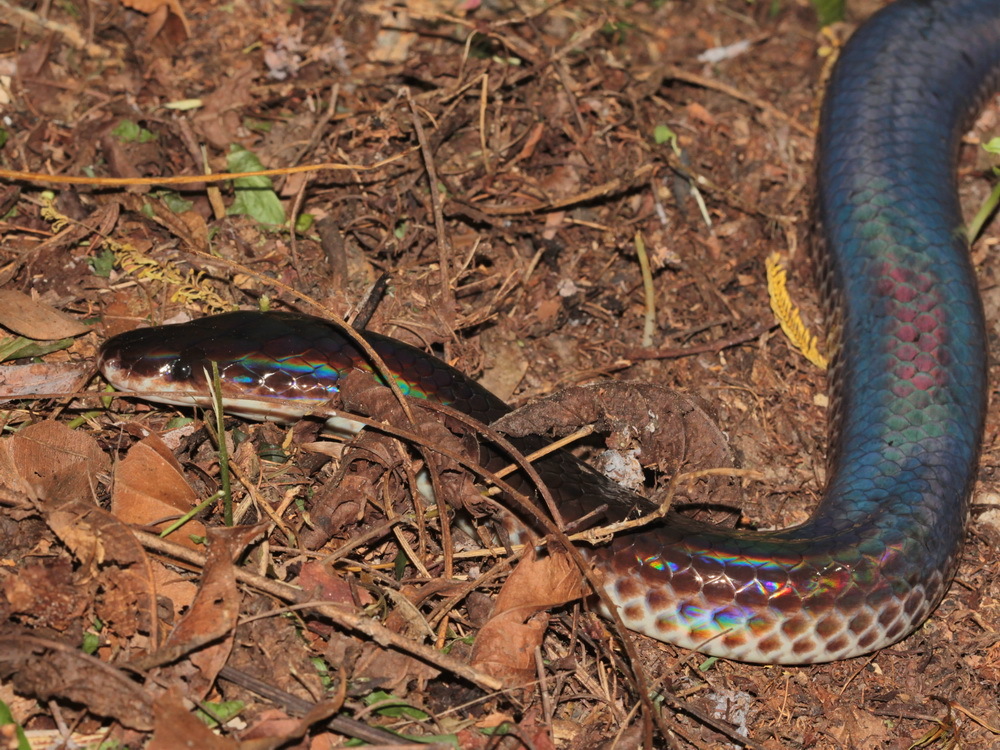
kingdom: Animalia
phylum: Chordata
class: Squamata
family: Xenopeltidae
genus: Xenopeltis
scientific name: Xenopeltis unicolor
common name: Sunbeam snake
